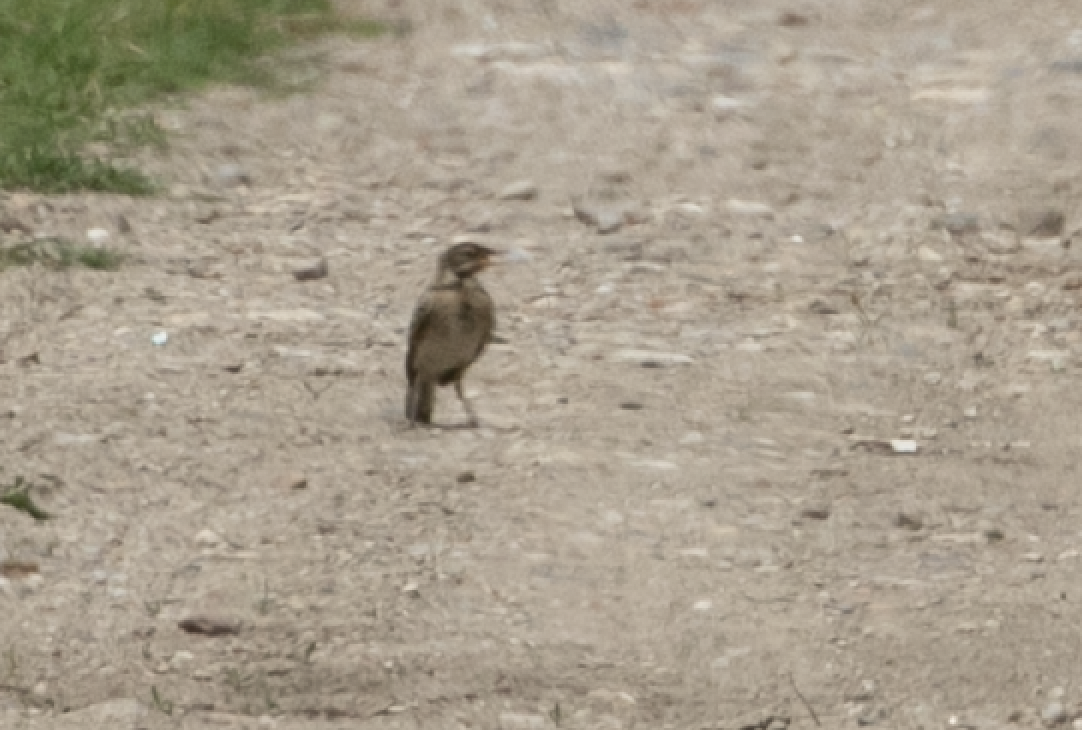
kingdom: Animalia
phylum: Chordata
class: Aves
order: Passeriformes
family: Motacillidae
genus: Motacilla
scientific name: Motacilla flava
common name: Western yellow wagtail
